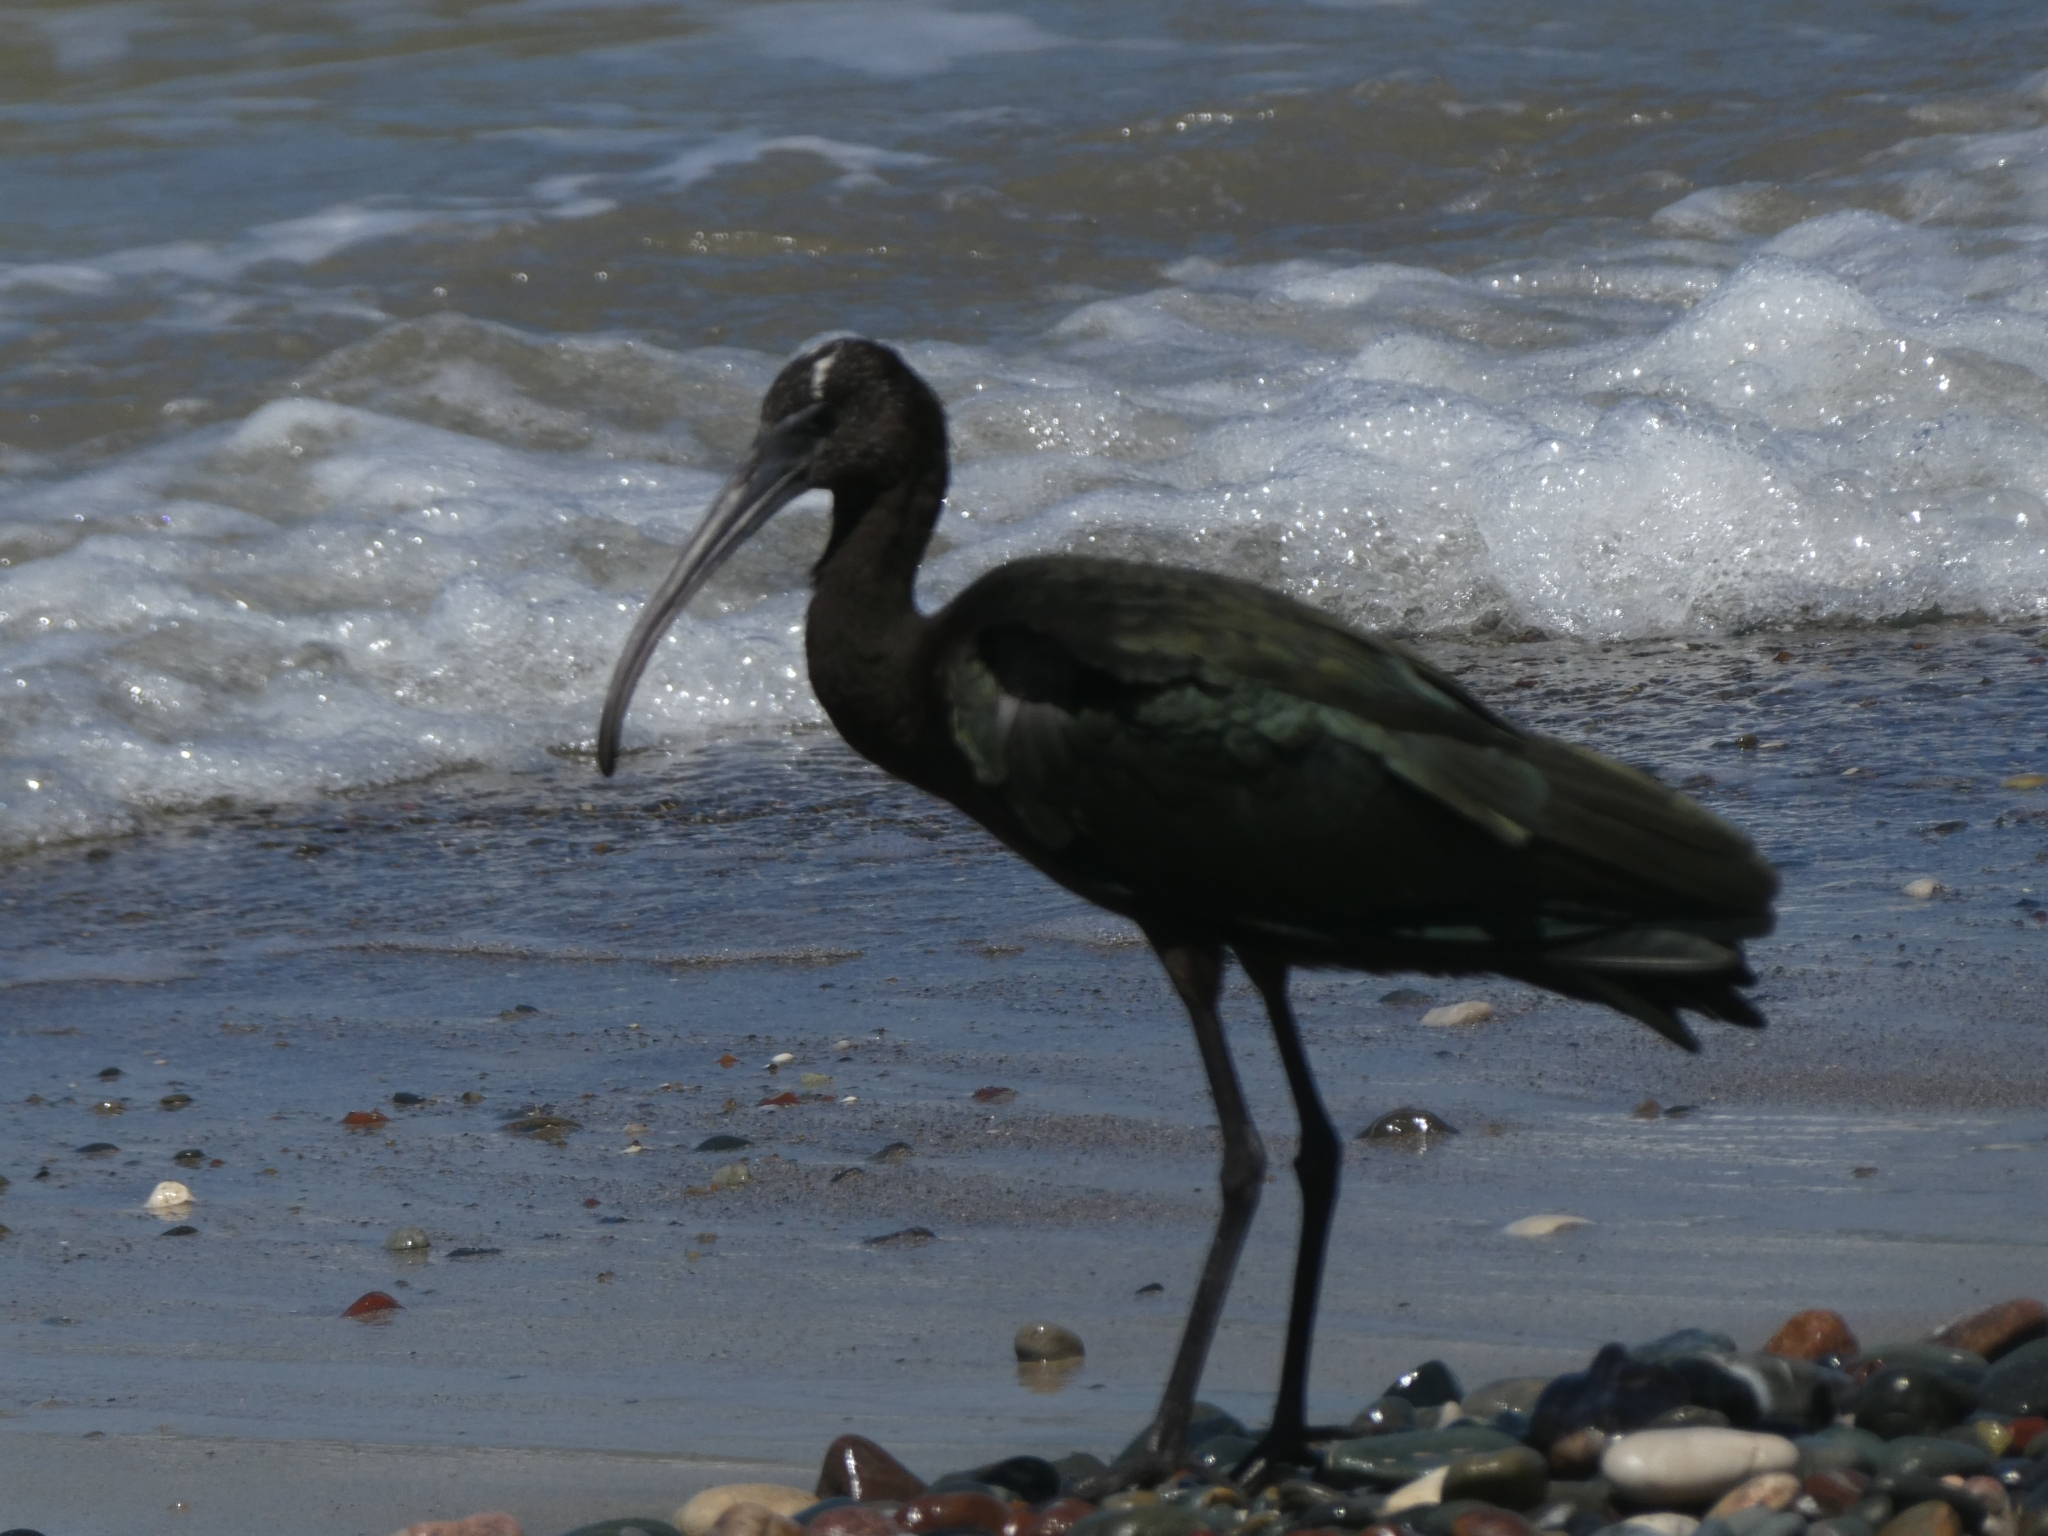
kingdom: Animalia
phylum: Chordata
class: Aves
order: Pelecaniformes
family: Threskiornithidae
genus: Plegadis
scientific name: Plegadis falcinellus
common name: Glossy ibis
